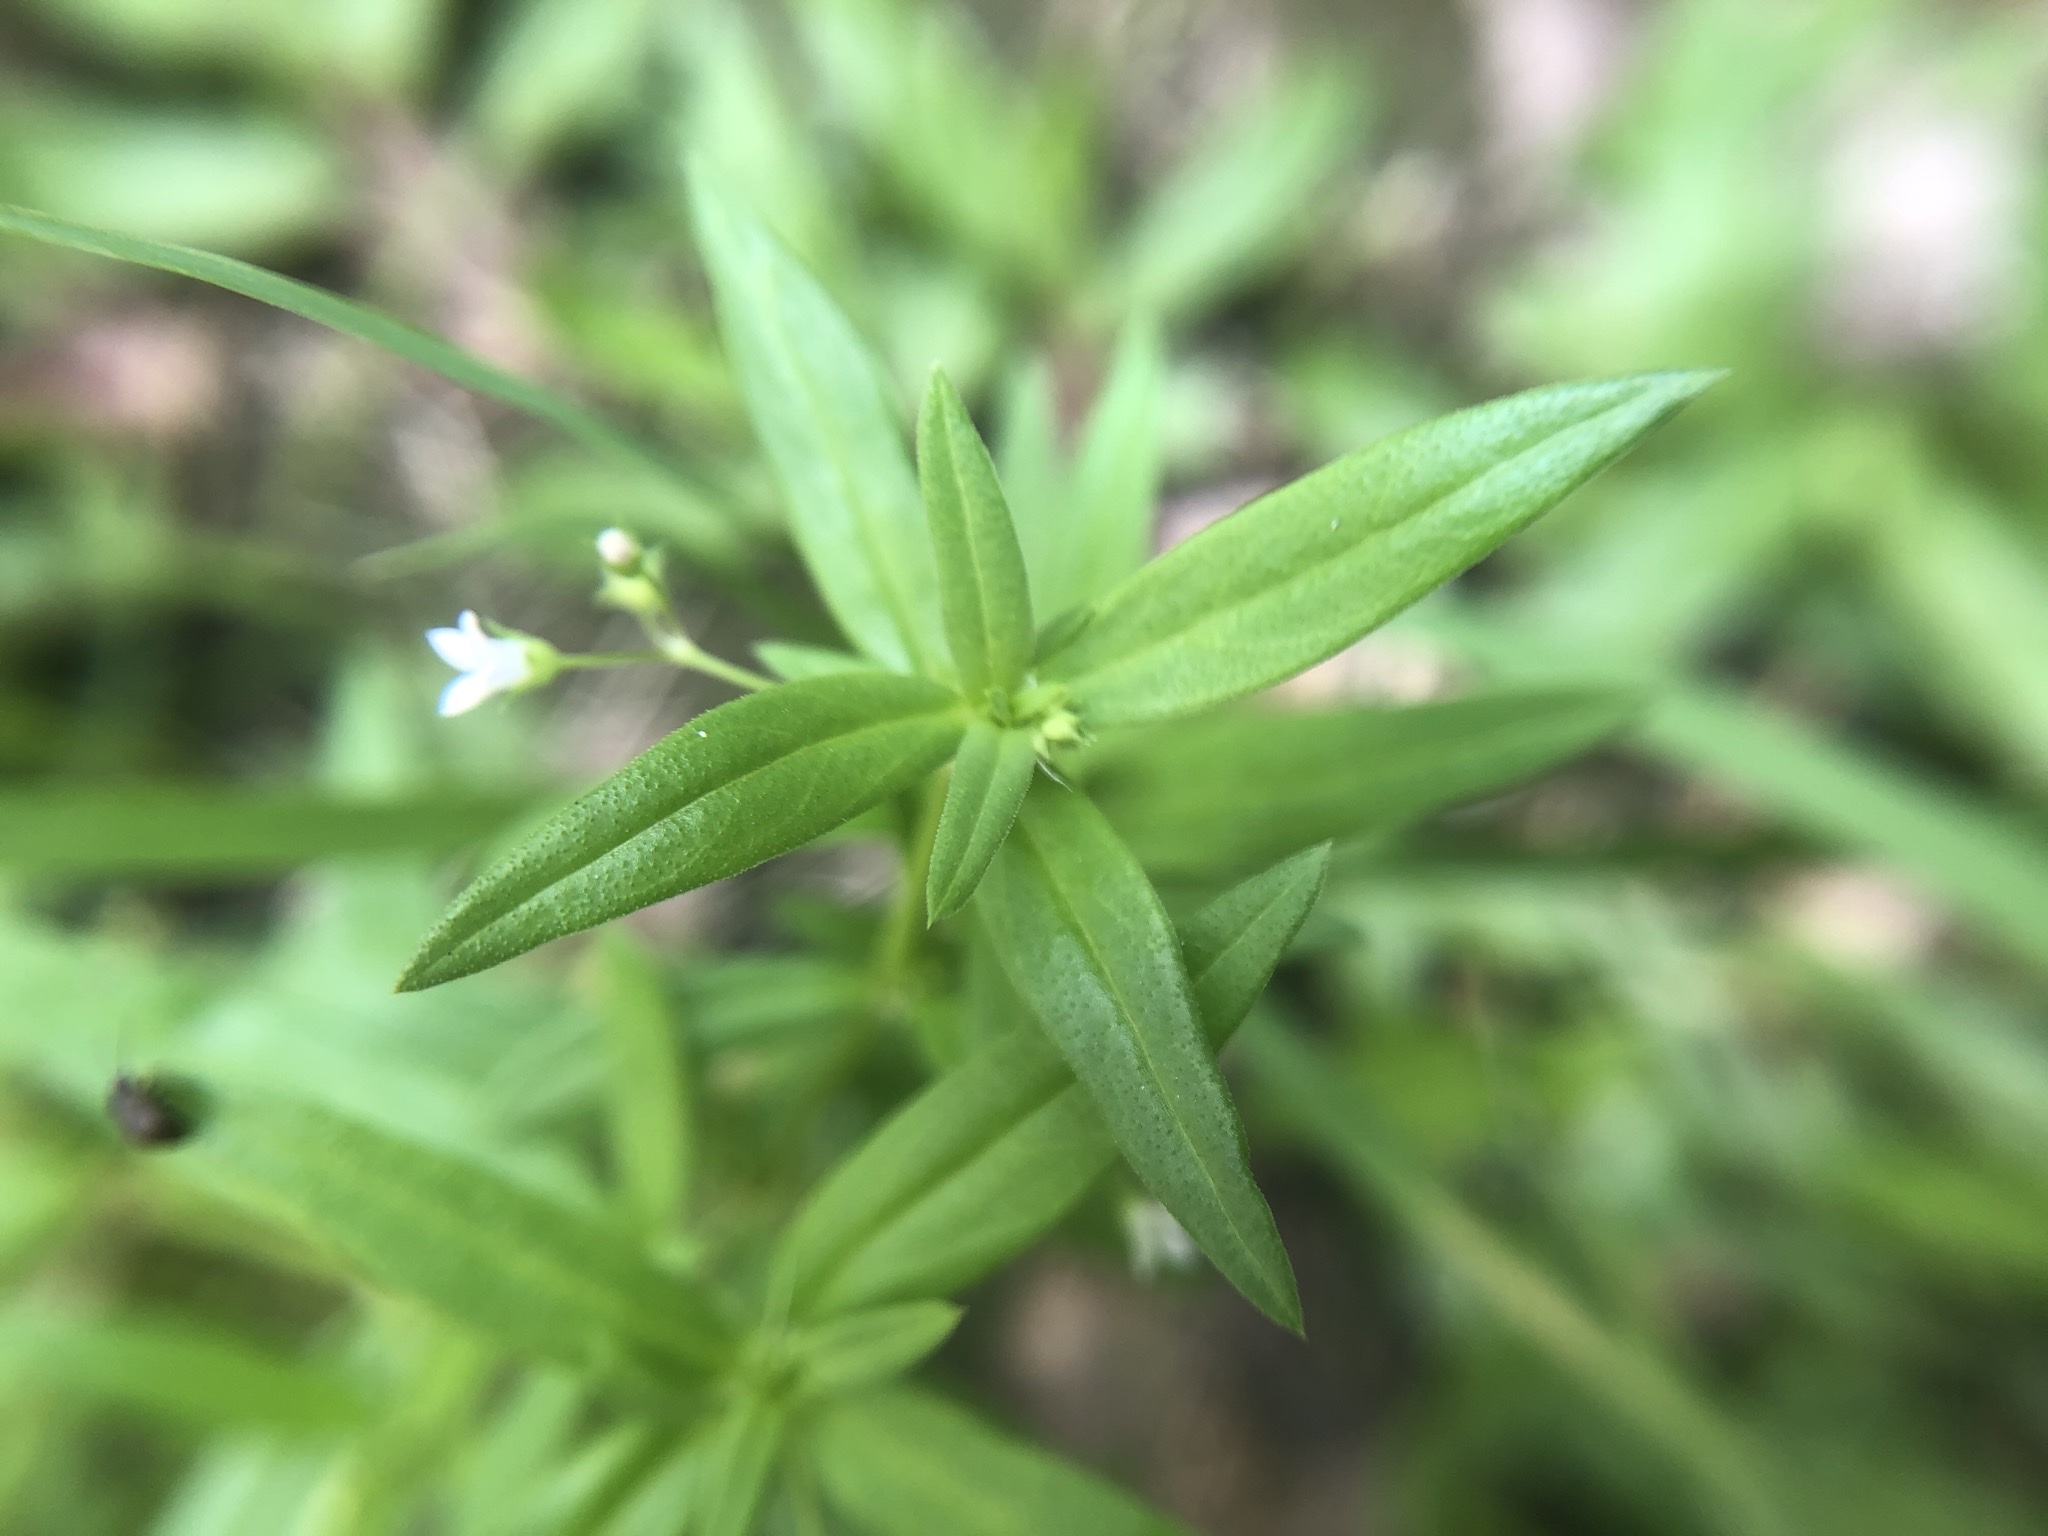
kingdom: Plantae
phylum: Tracheophyta
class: Magnoliopsida
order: Gentianales
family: Rubiaceae
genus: Oldenlandia
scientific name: Oldenlandia corymbosa
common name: Flat-top mille graines
